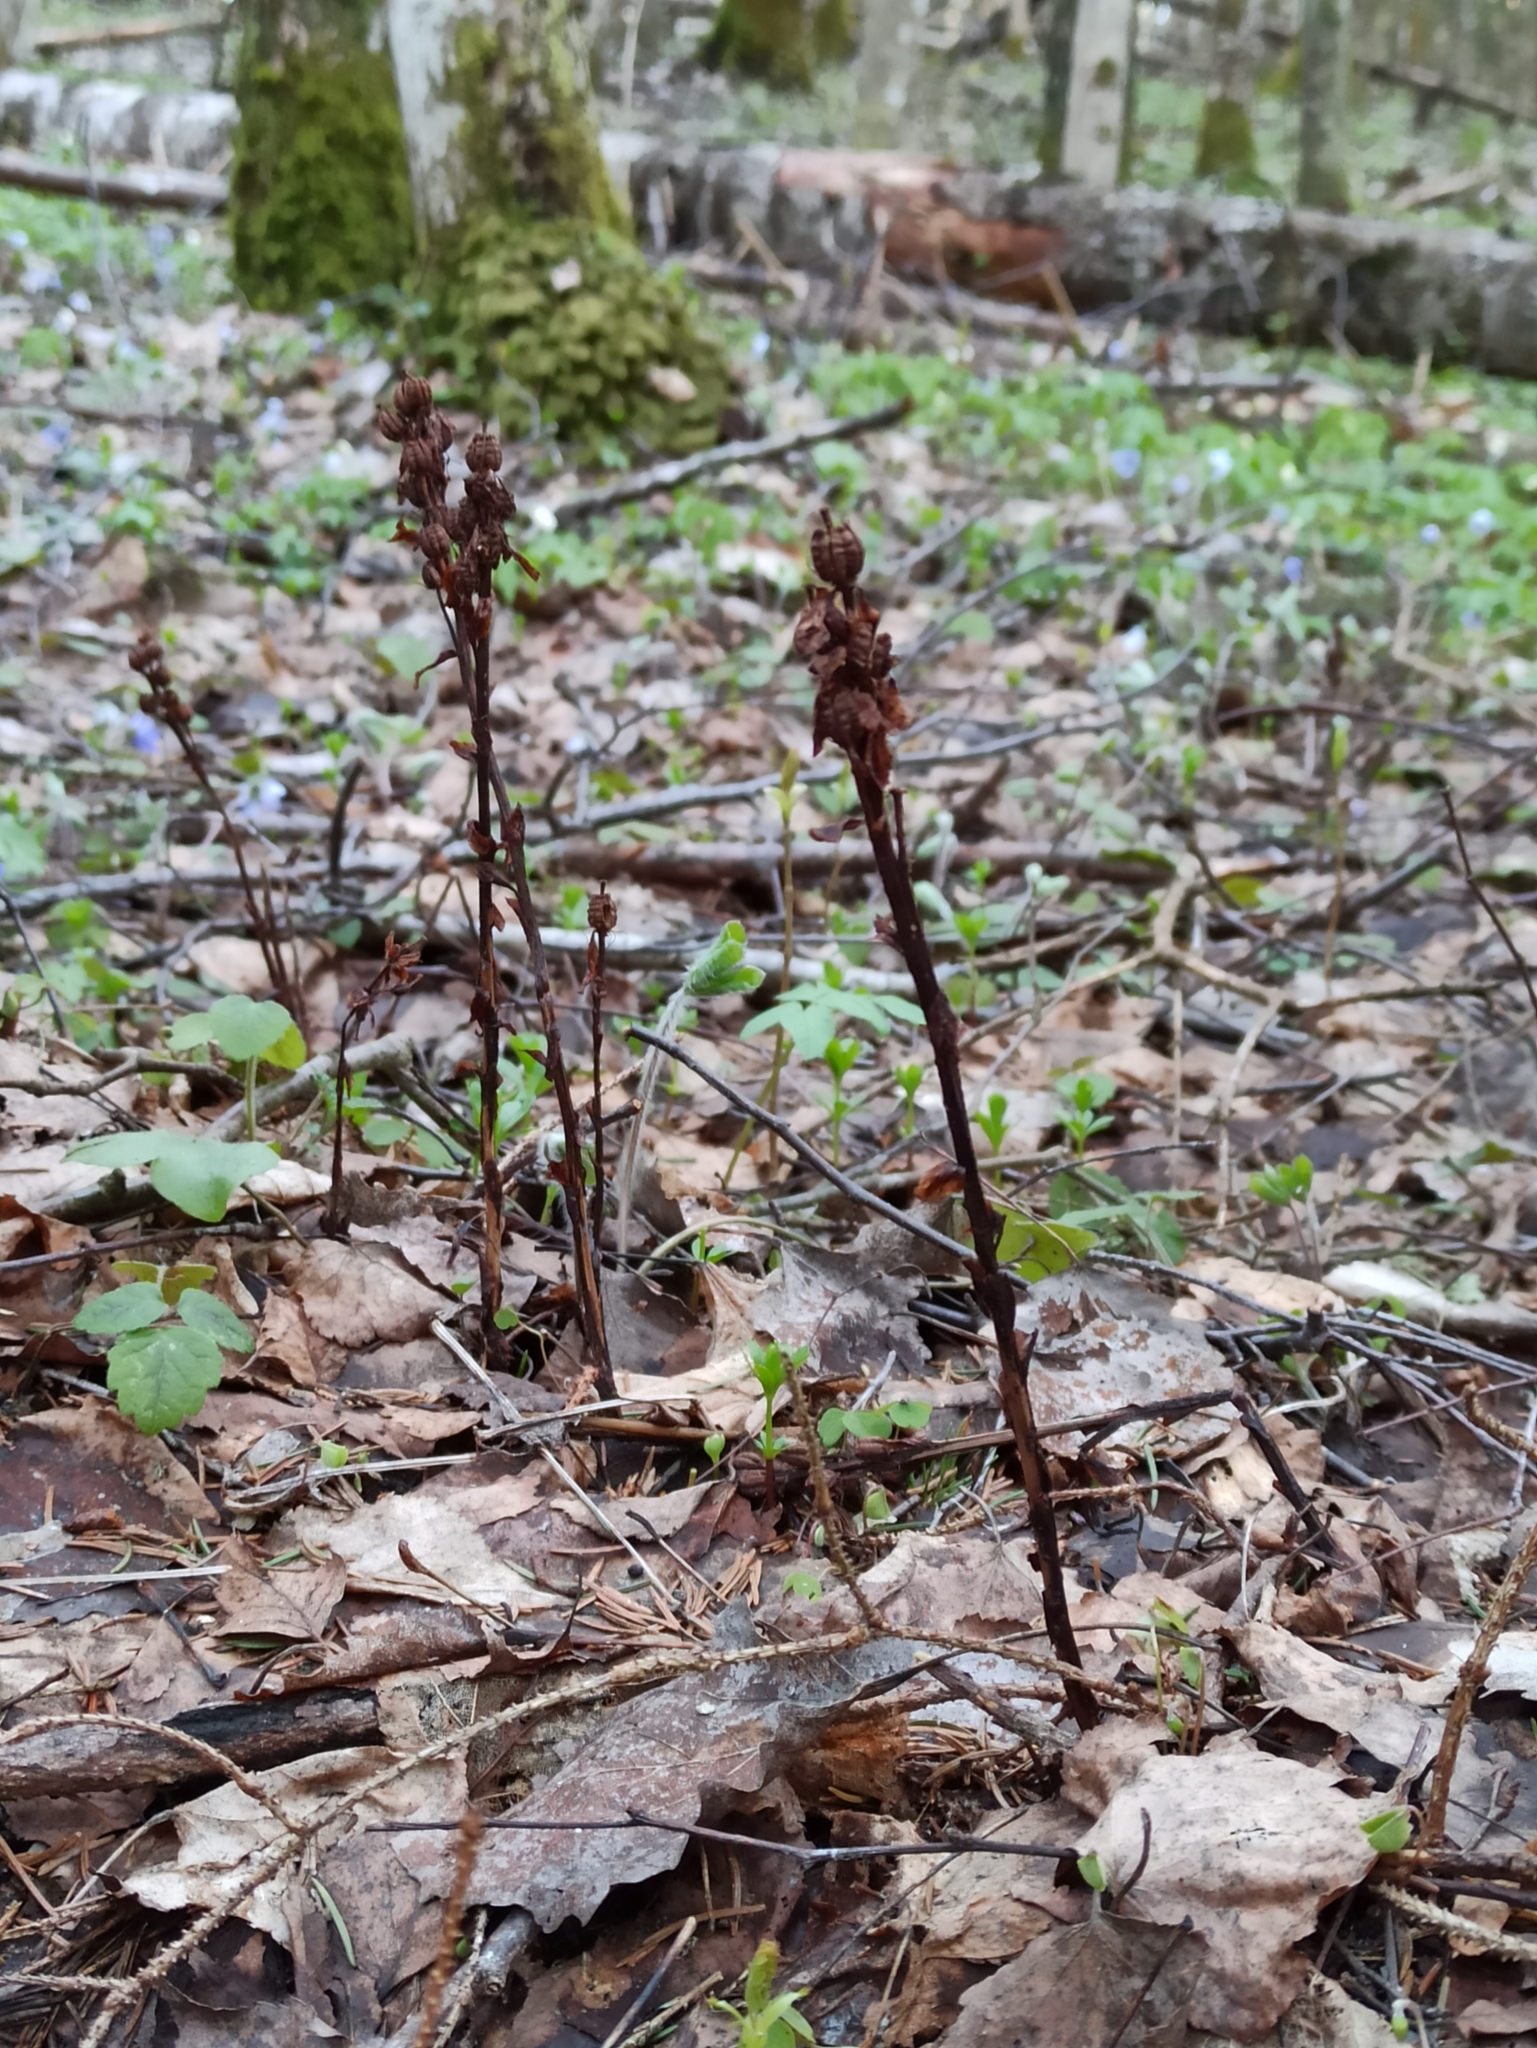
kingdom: Plantae
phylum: Tracheophyta
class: Magnoliopsida
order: Ericales
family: Ericaceae
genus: Hypopitys
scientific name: Hypopitys monotropa
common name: Yellow bird's-nest
